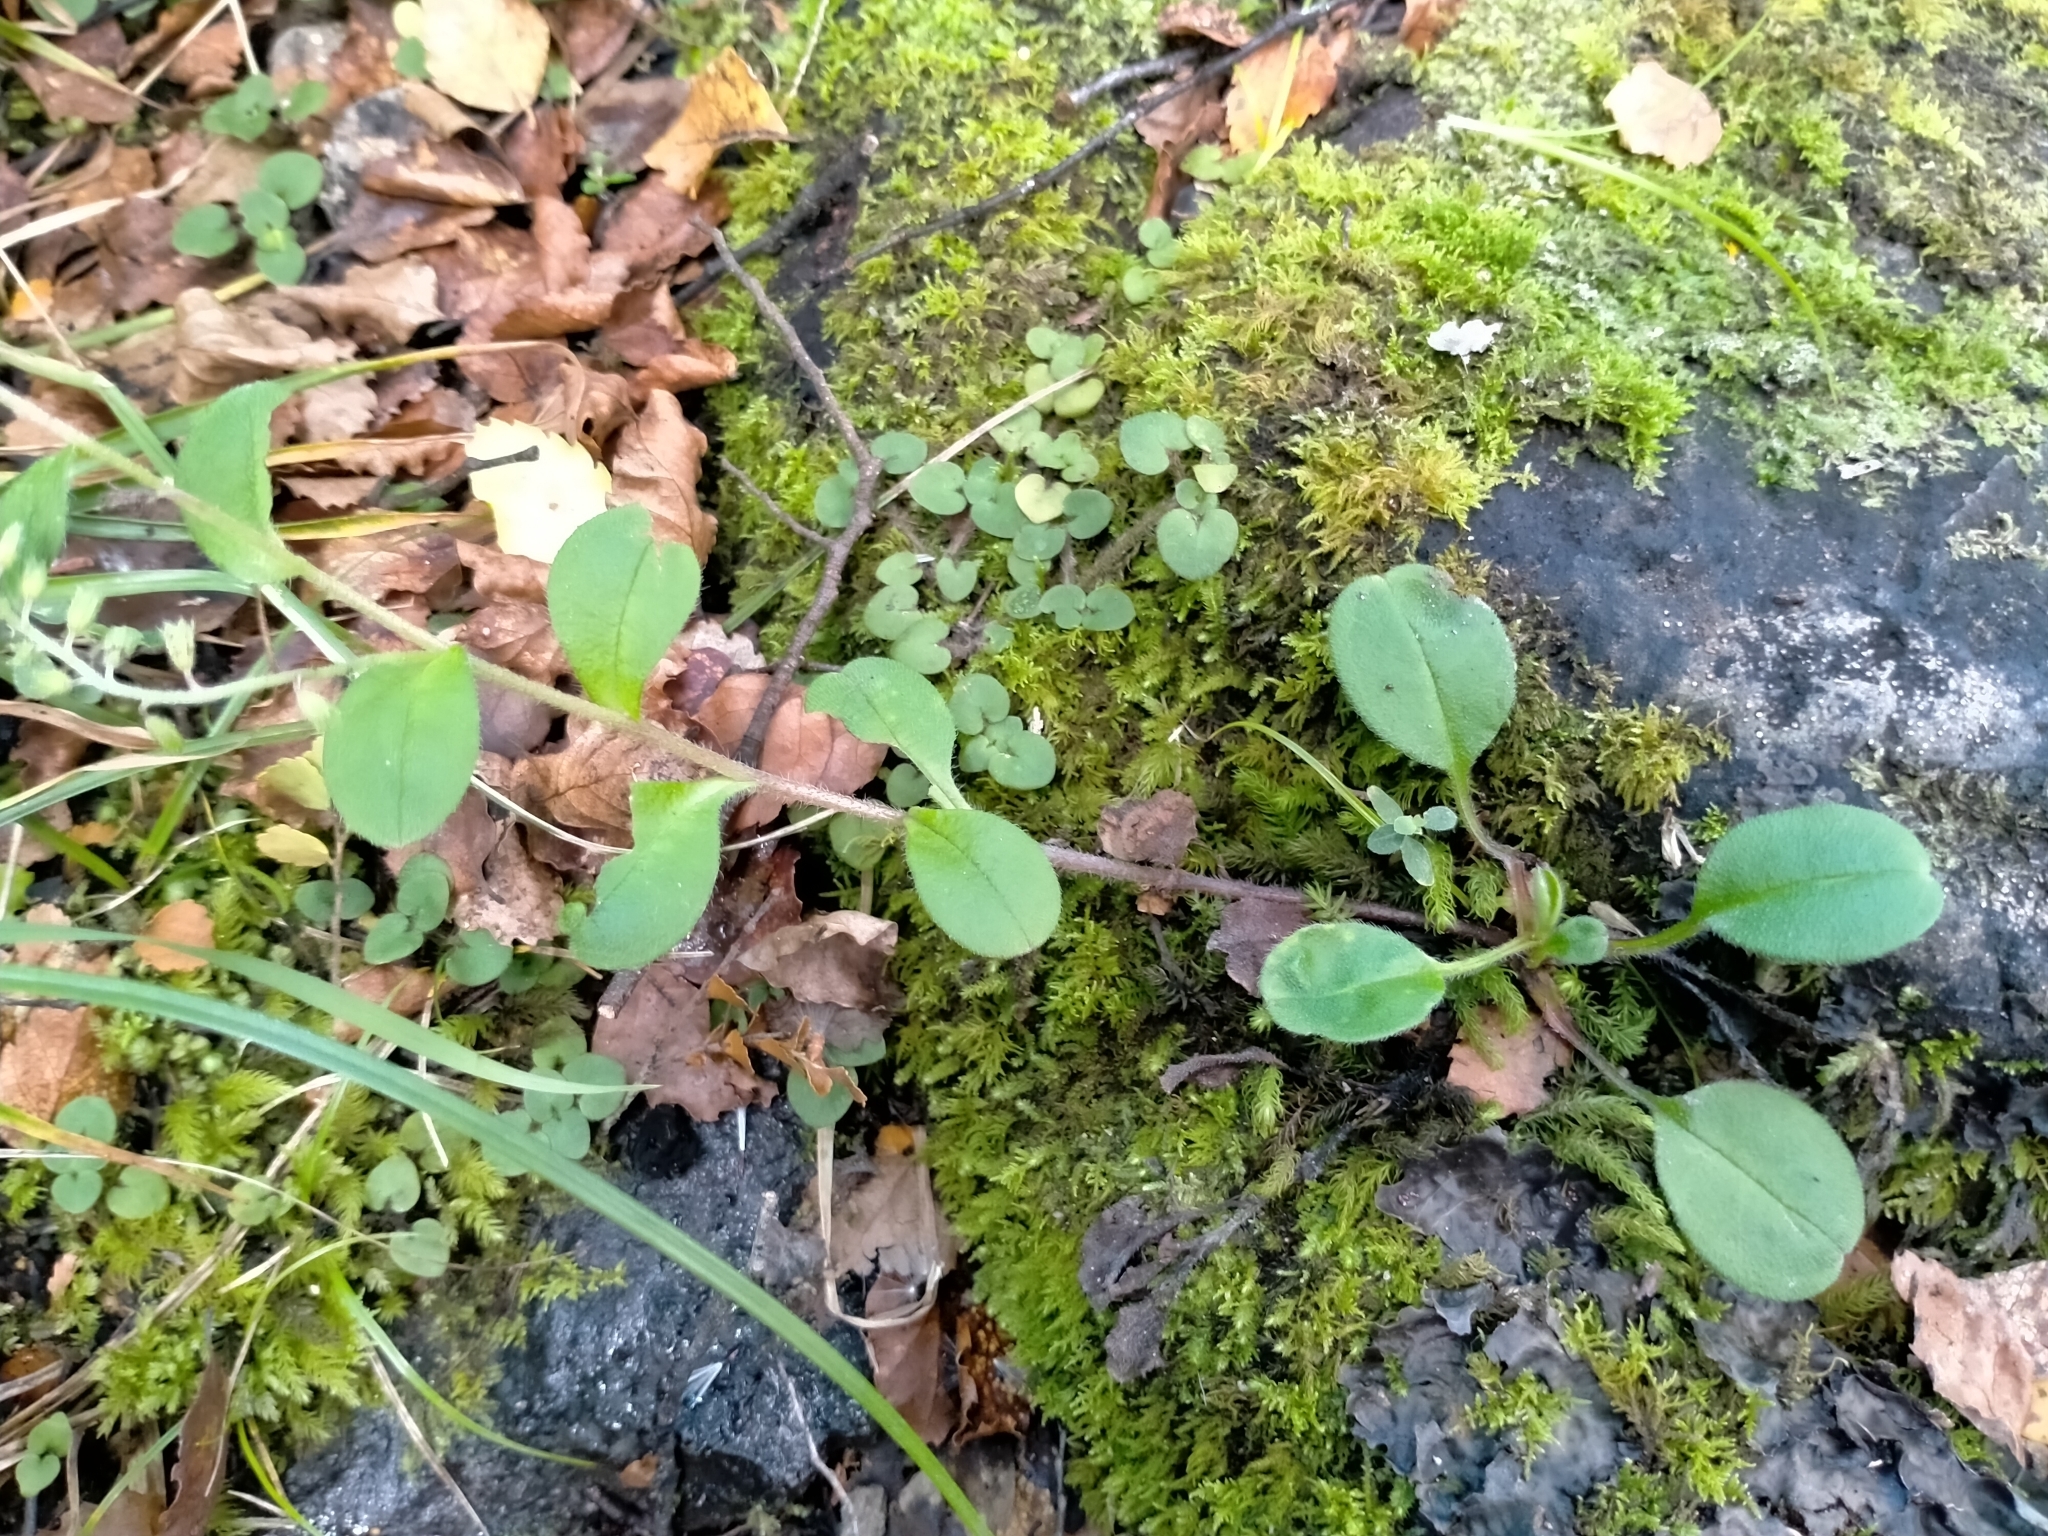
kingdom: Plantae
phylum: Tracheophyta
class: Magnoliopsida
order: Boraginales
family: Boraginaceae
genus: Myosotis
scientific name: Myosotis forsteri
